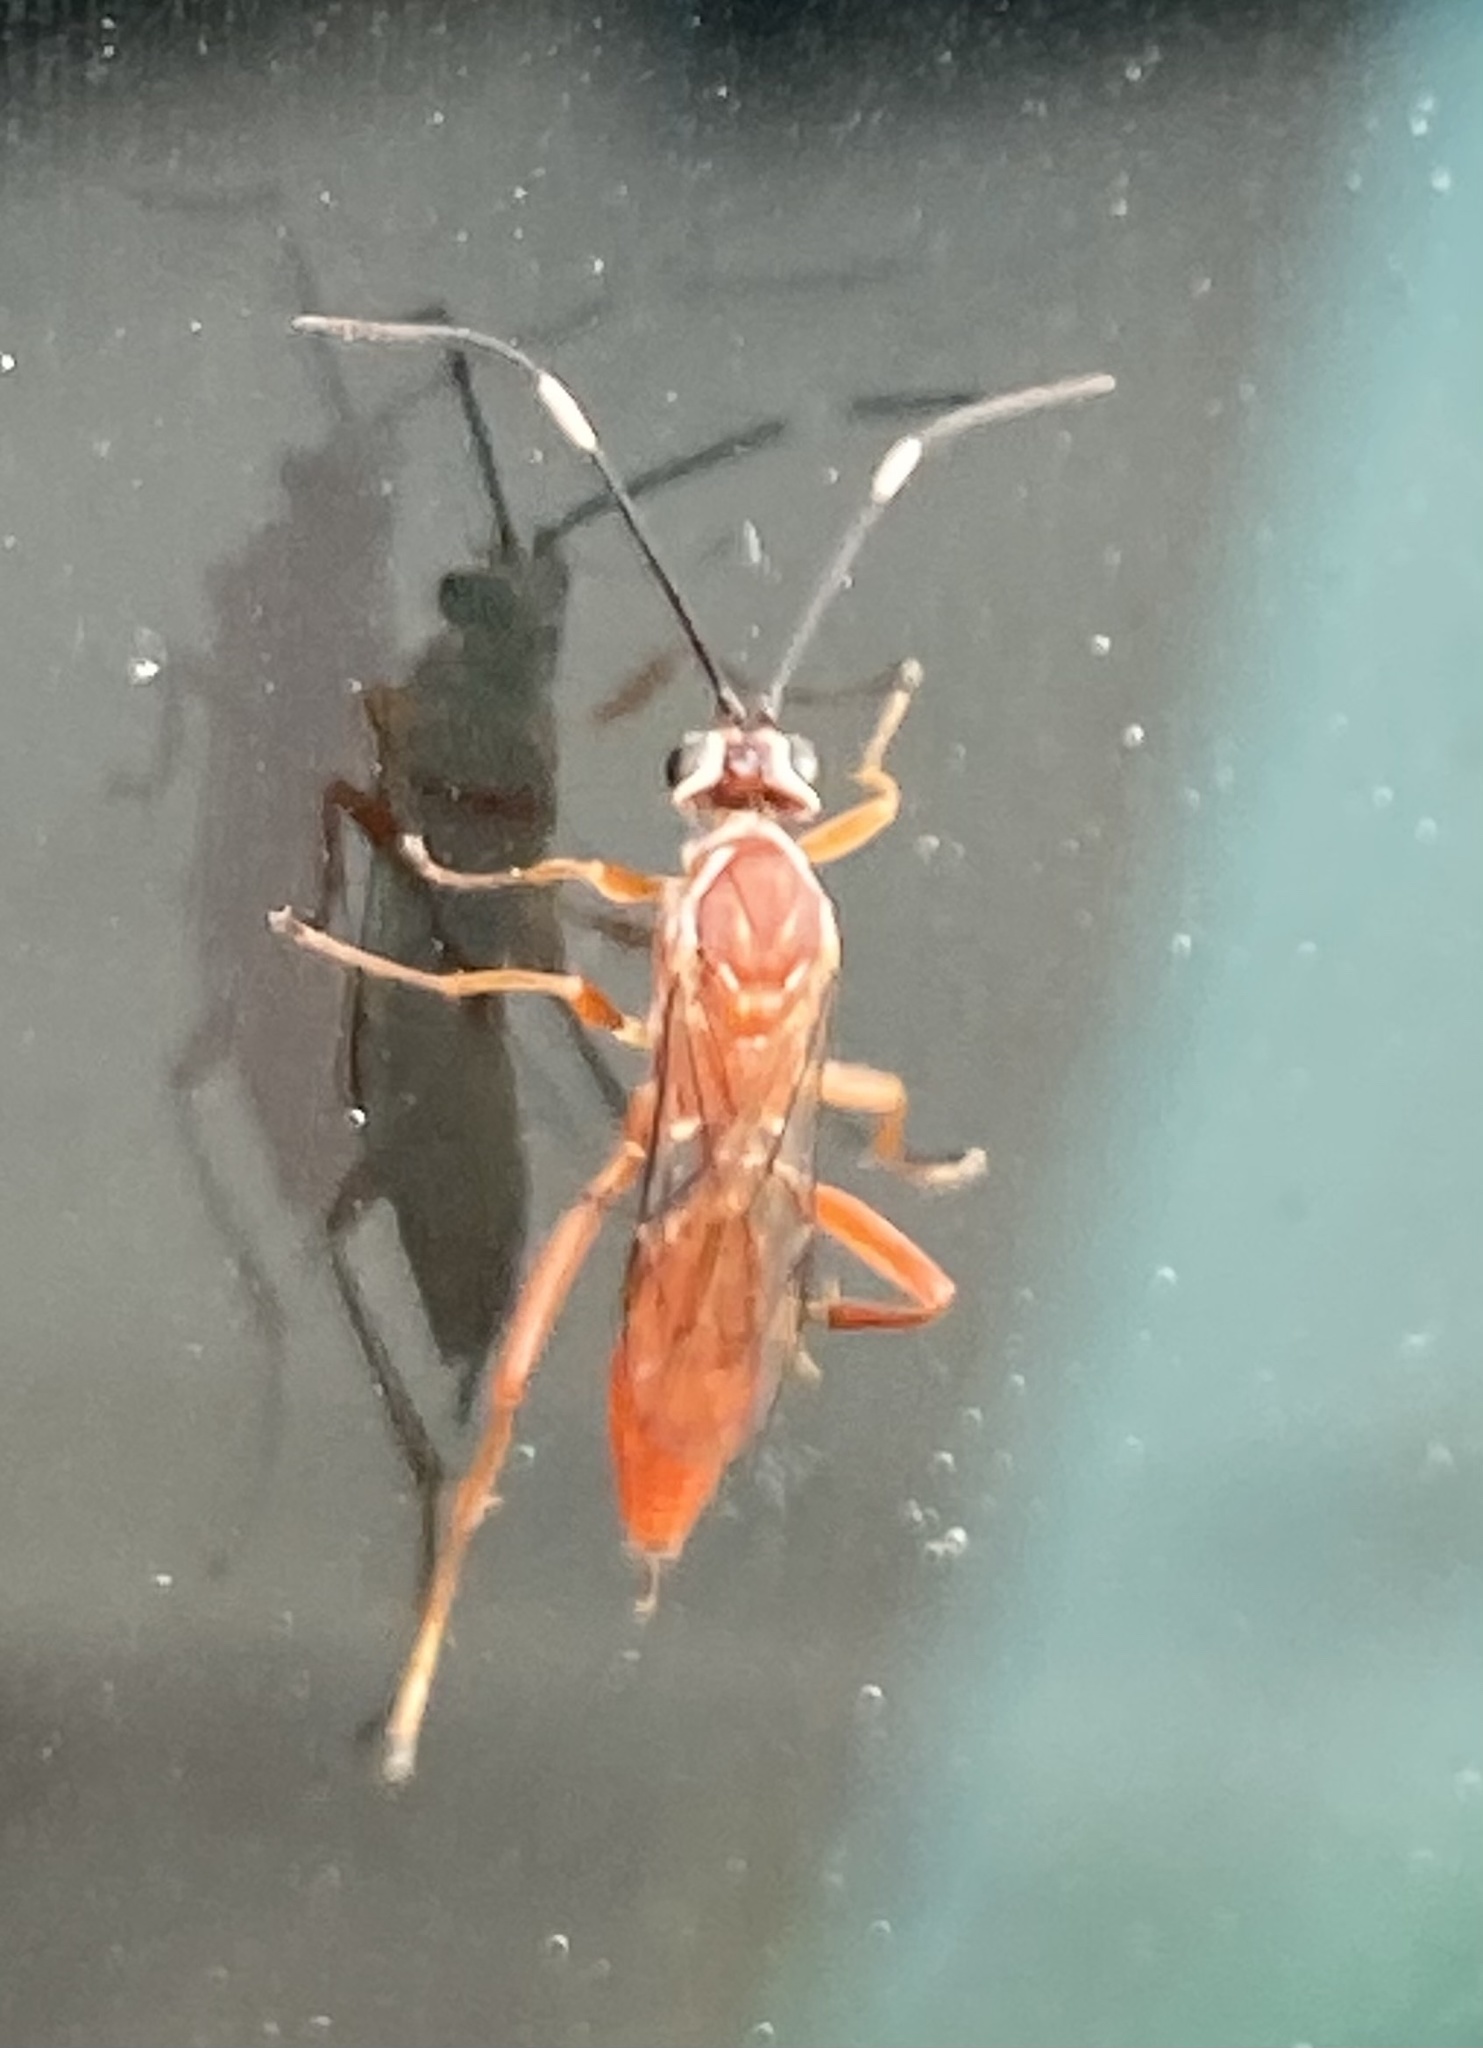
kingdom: Animalia
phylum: Arthropoda
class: Insecta
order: Hymenoptera
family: Ichneumonidae
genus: Pachysomoides
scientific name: Pachysomoides fulvus
